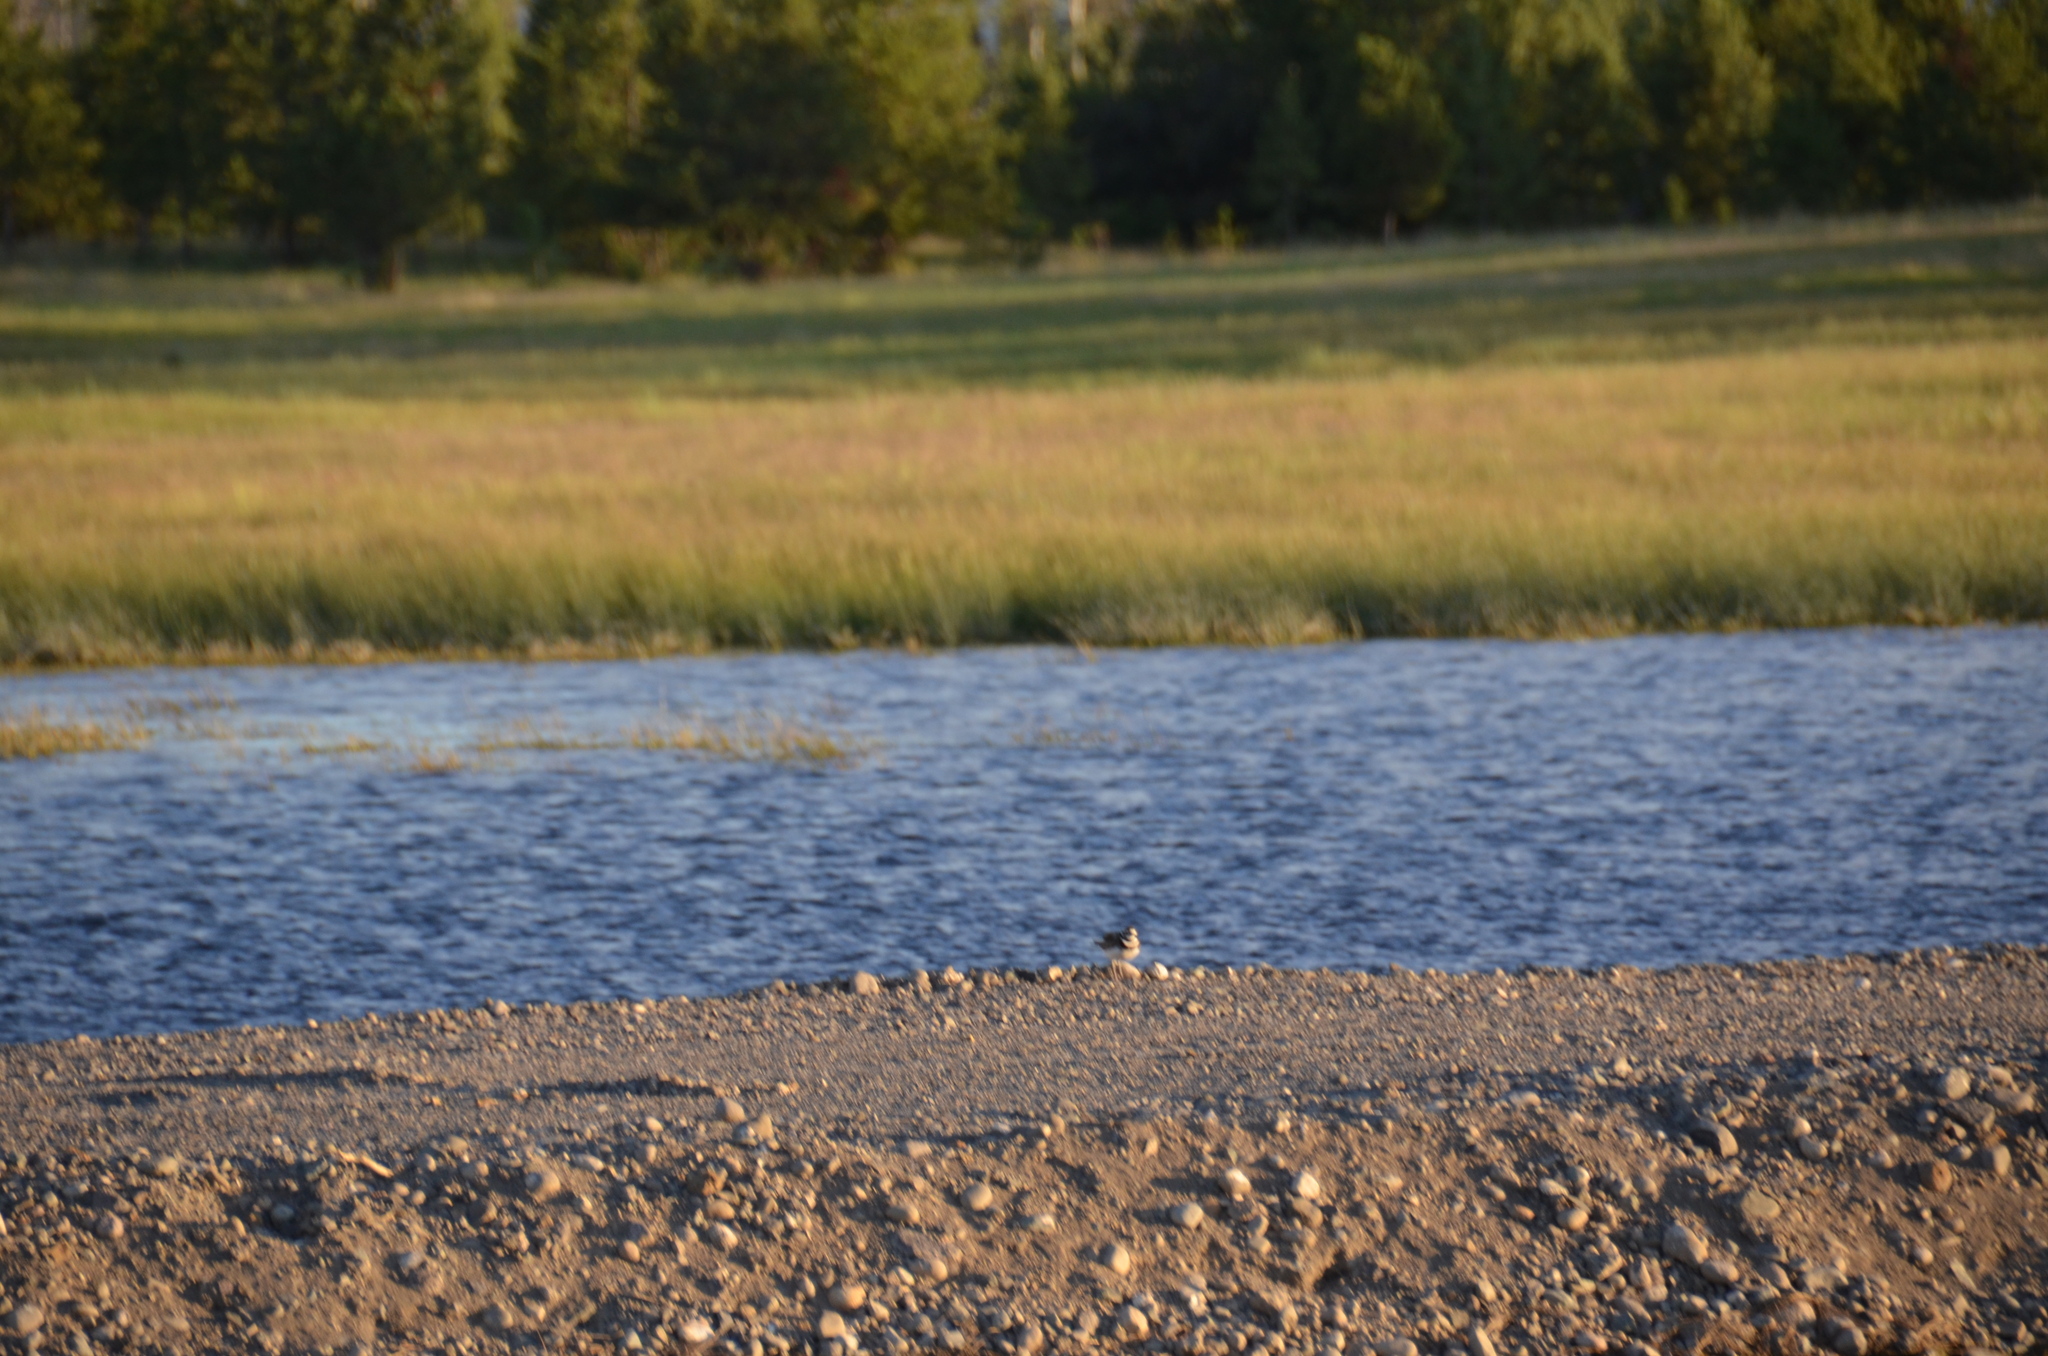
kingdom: Animalia
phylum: Chordata
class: Aves
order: Charadriiformes
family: Charadriidae
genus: Charadrius
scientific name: Charadrius vociferus
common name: Killdeer
